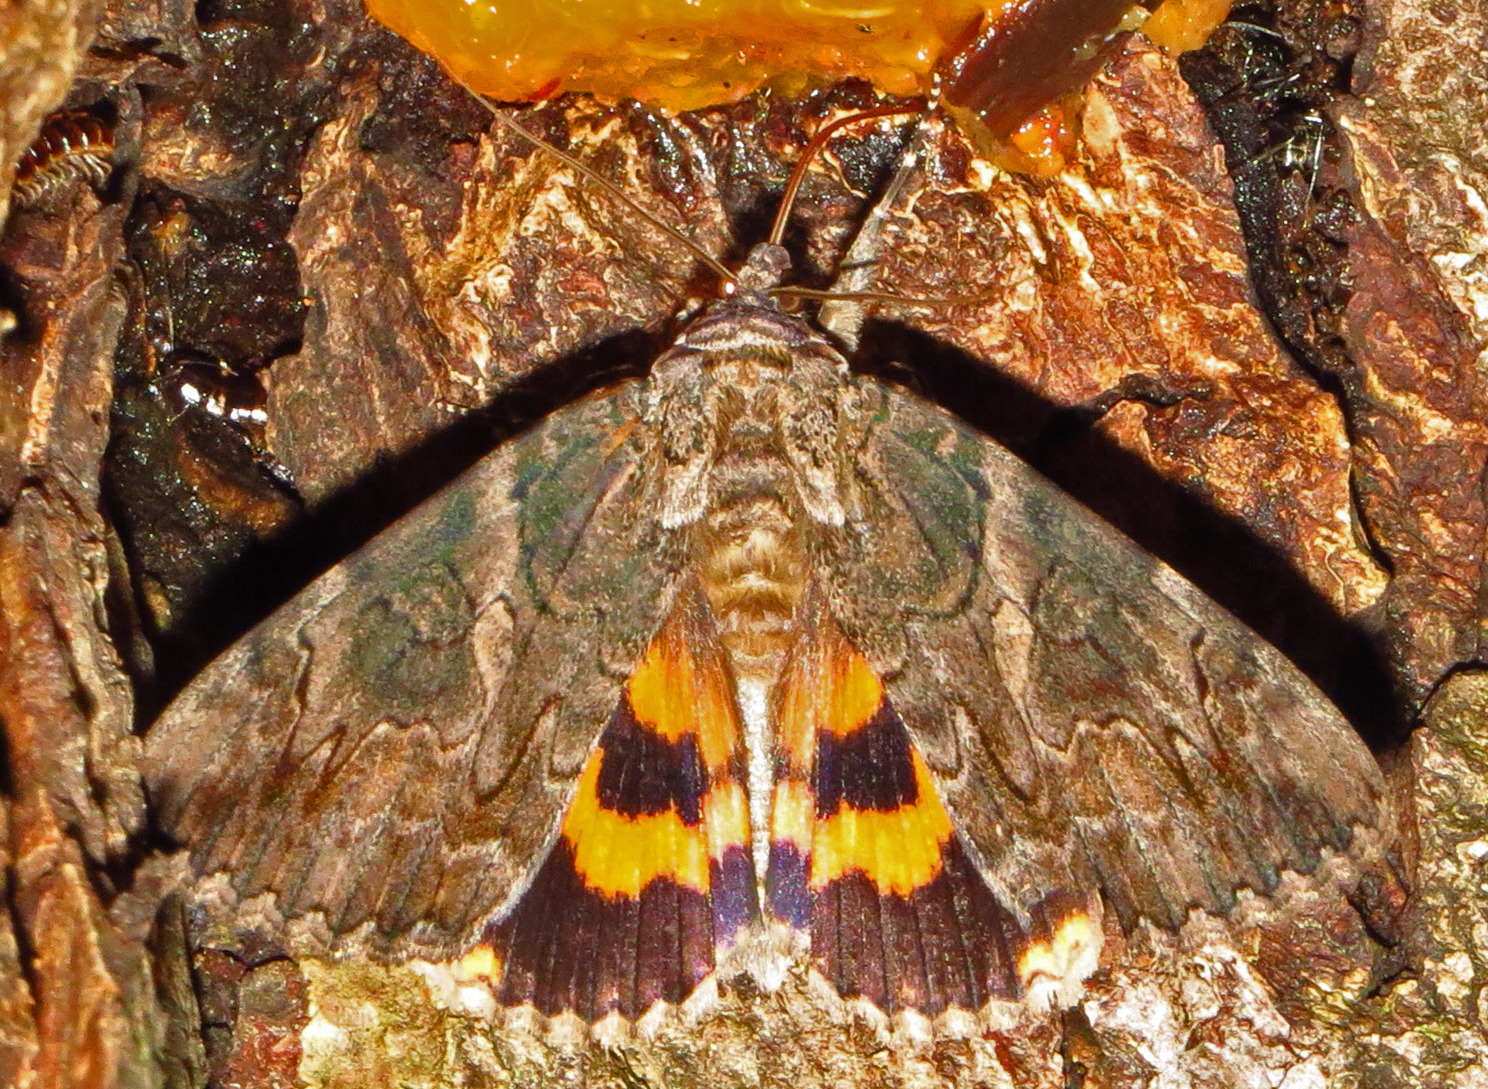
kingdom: Animalia
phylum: Arthropoda
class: Insecta
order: Lepidoptera
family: Erebidae
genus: Catocala
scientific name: Catocala piatrix
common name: The penitent underwing
